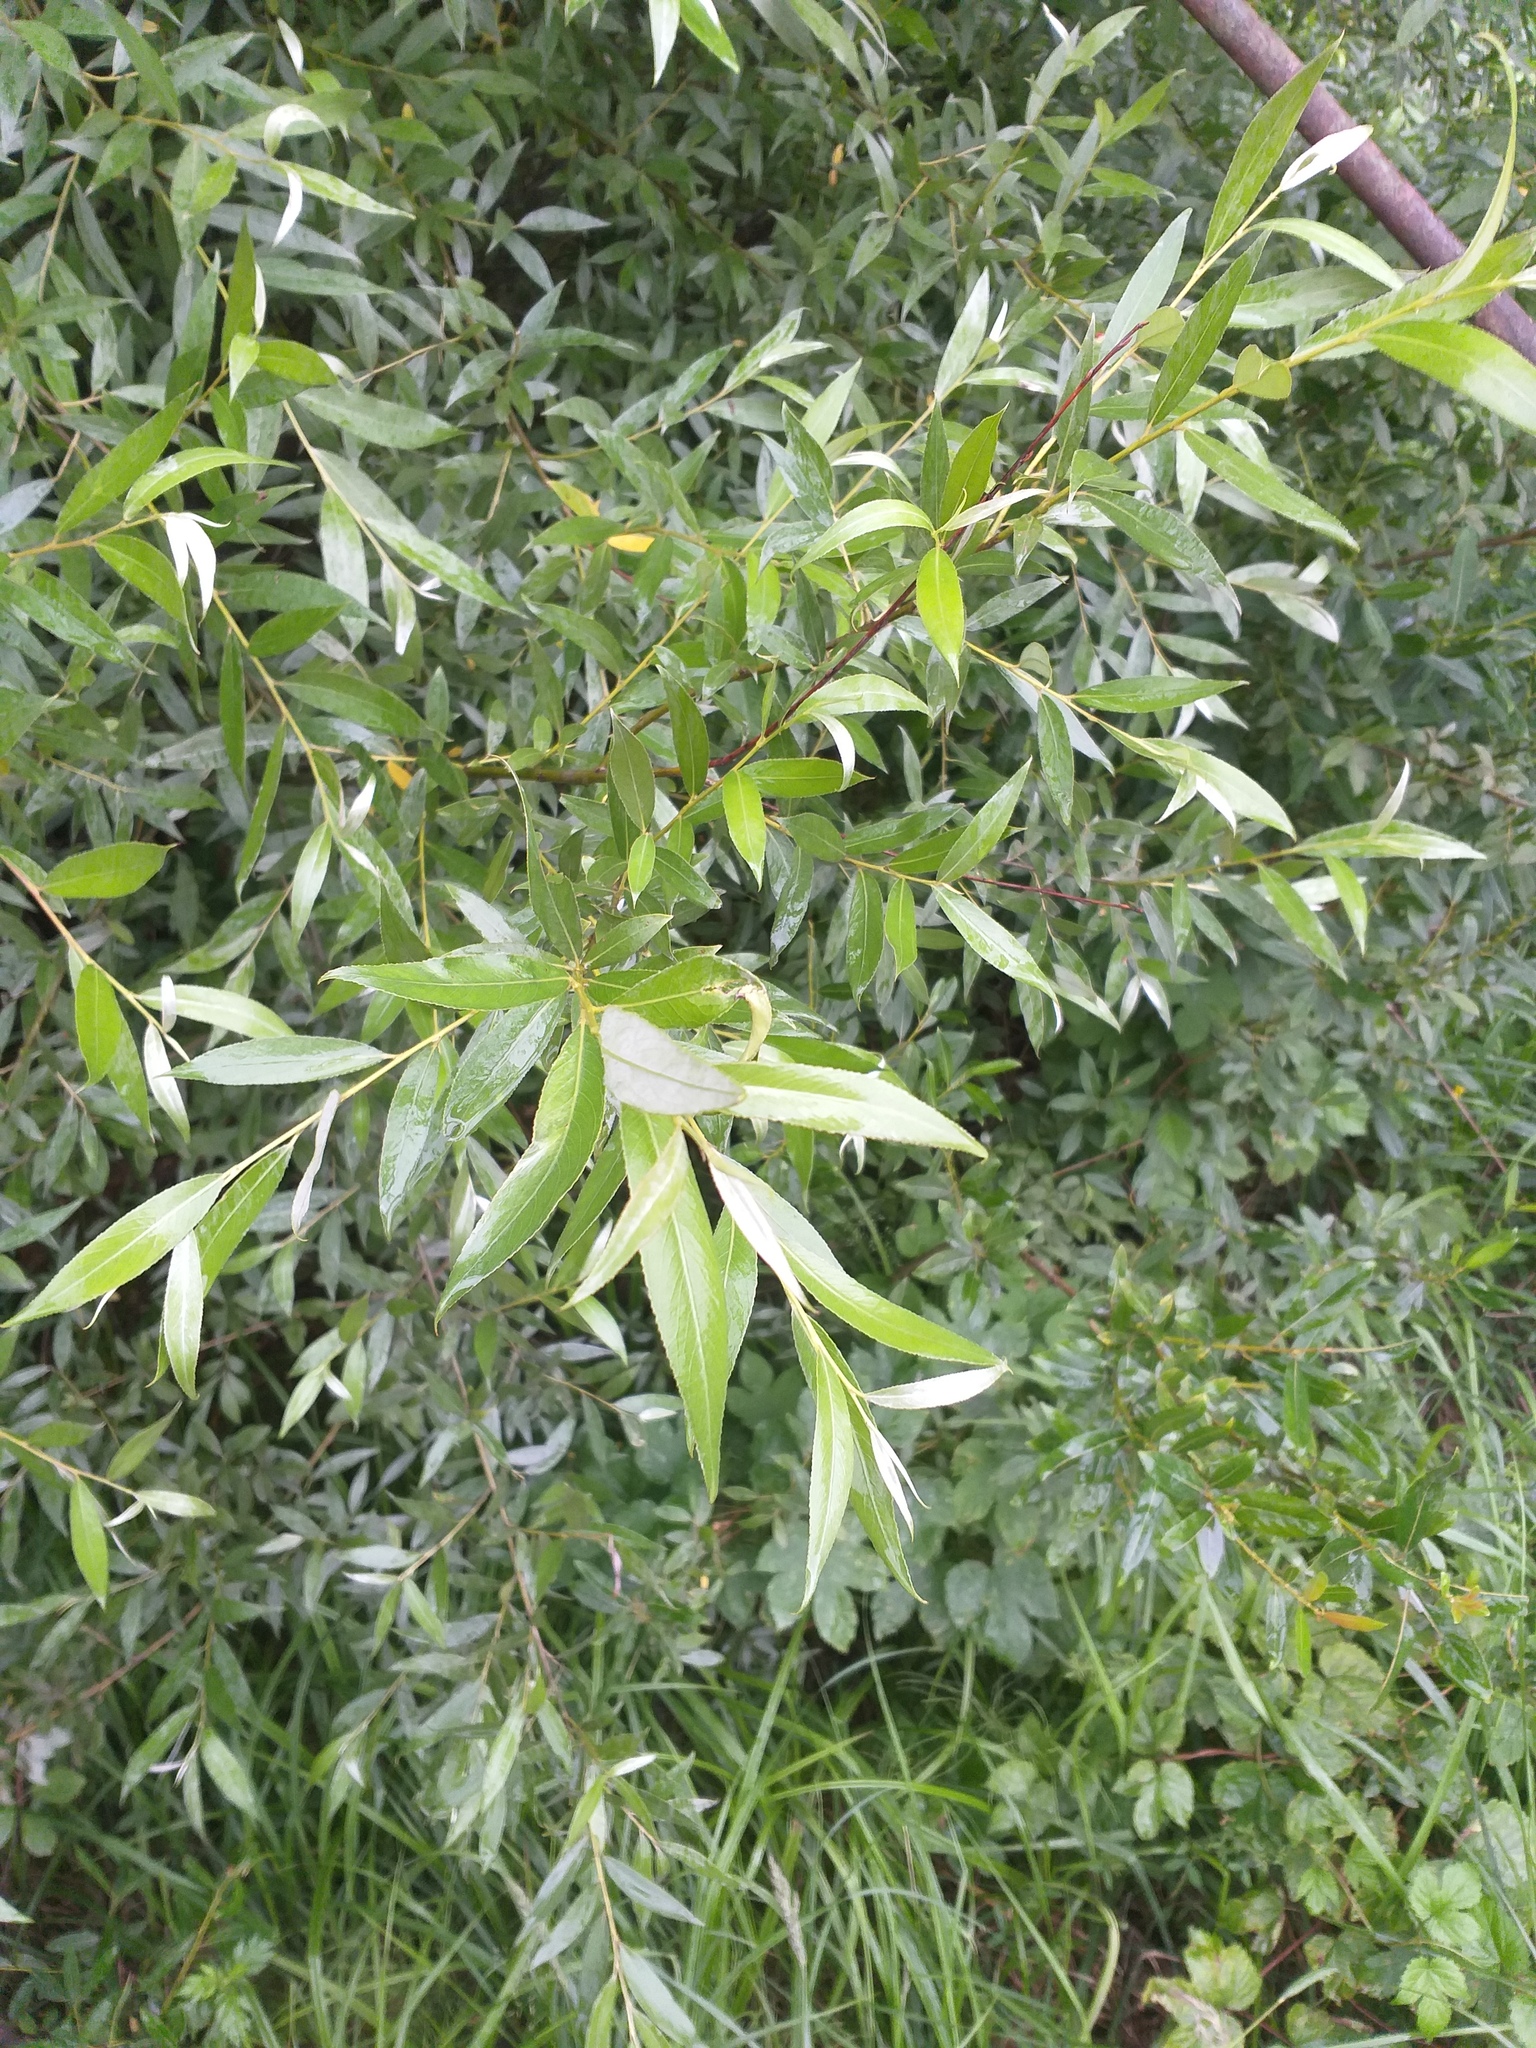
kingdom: Plantae
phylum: Tracheophyta
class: Magnoliopsida
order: Malpighiales
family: Salicaceae
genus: Salix
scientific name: Salix alba
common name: White willow
